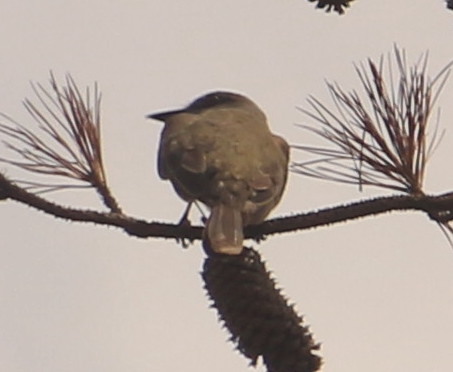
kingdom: Animalia
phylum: Chordata
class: Aves
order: Passeriformes
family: Tyrannidae
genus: Tyrannus
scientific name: Tyrannus melancholicus
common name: Tropical kingbird
